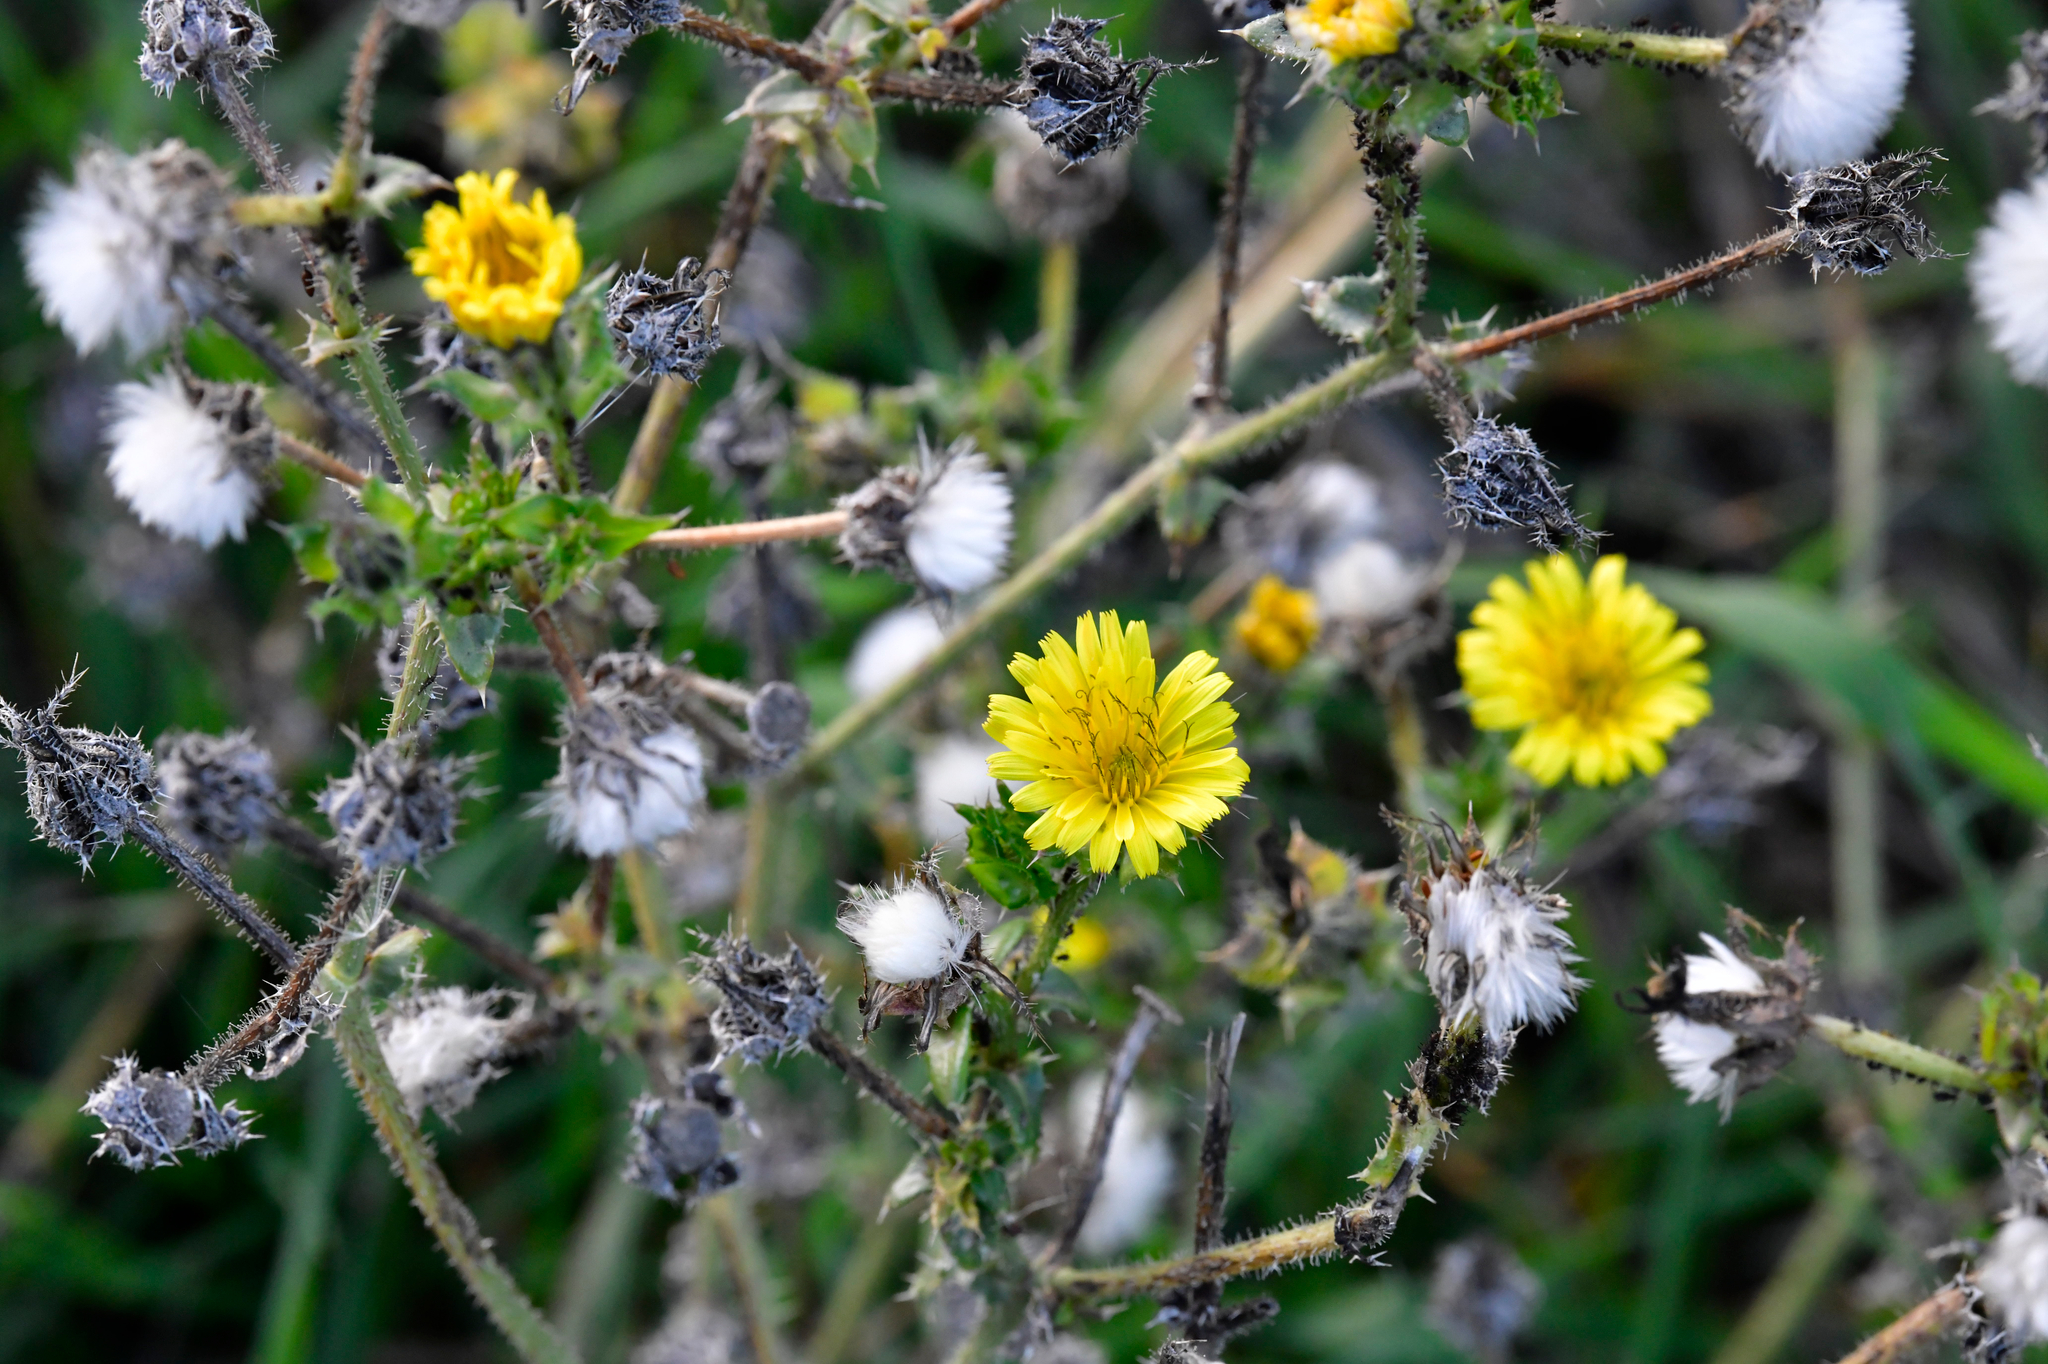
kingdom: Plantae
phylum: Tracheophyta
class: Magnoliopsida
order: Asterales
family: Asteraceae
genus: Helminthotheca
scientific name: Helminthotheca echioides
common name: Ox-tongue
